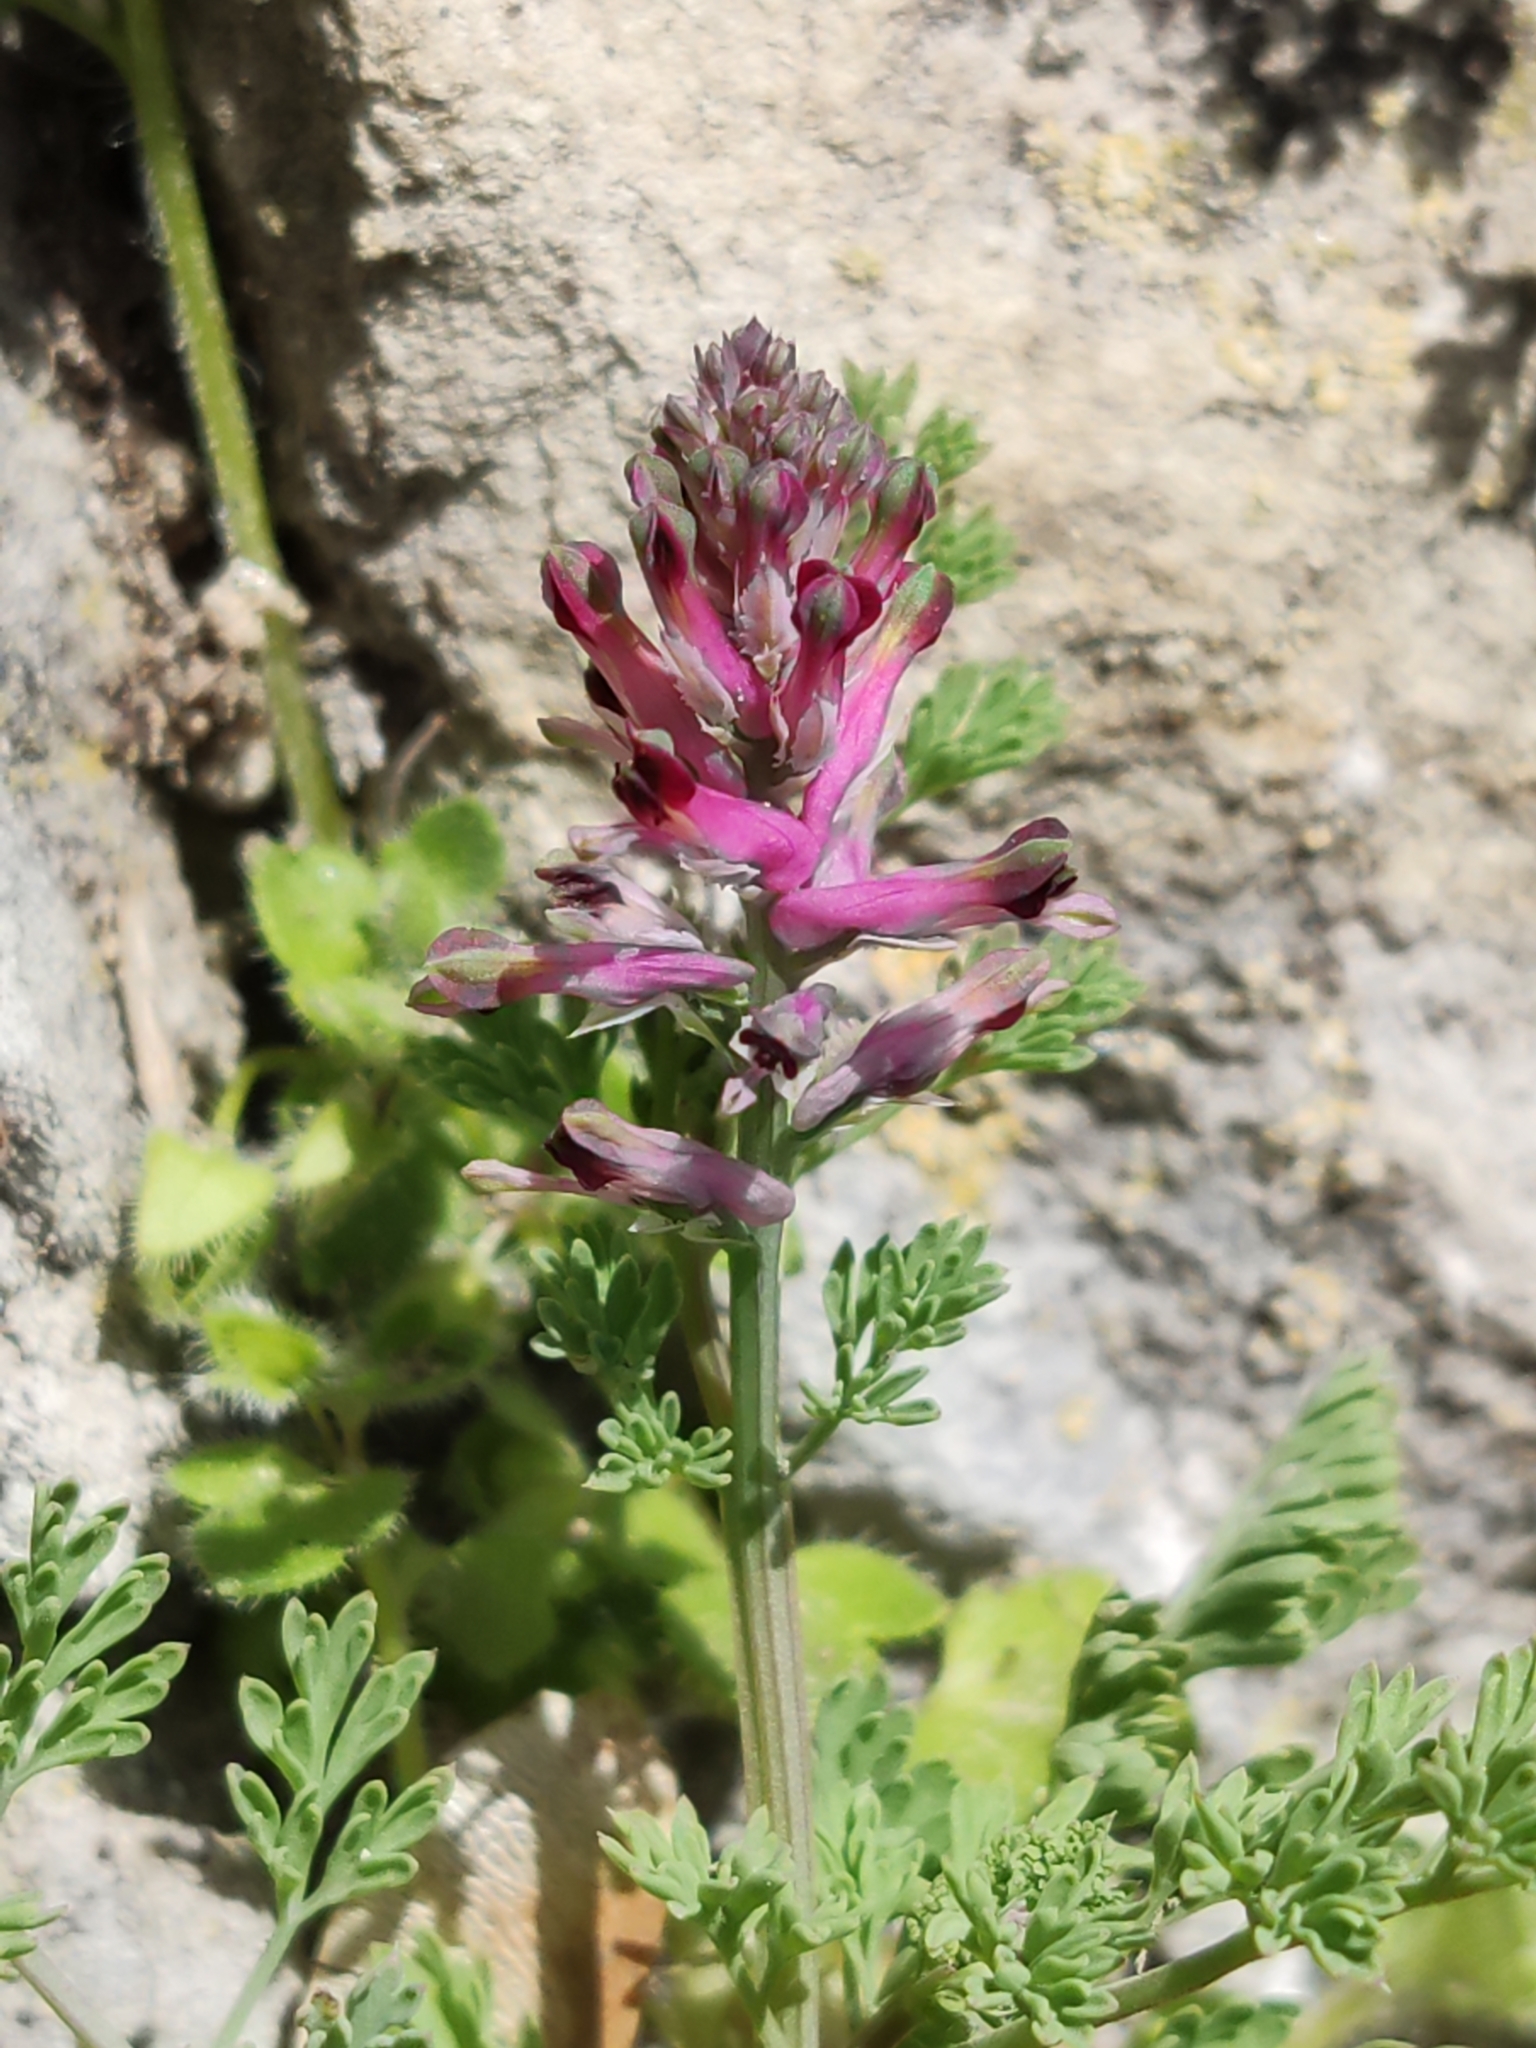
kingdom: Plantae
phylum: Tracheophyta
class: Magnoliopsida
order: Ranunculales
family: Papaveraceae
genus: Fumaria
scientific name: Fumaria officinalis
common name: Common fumitory
